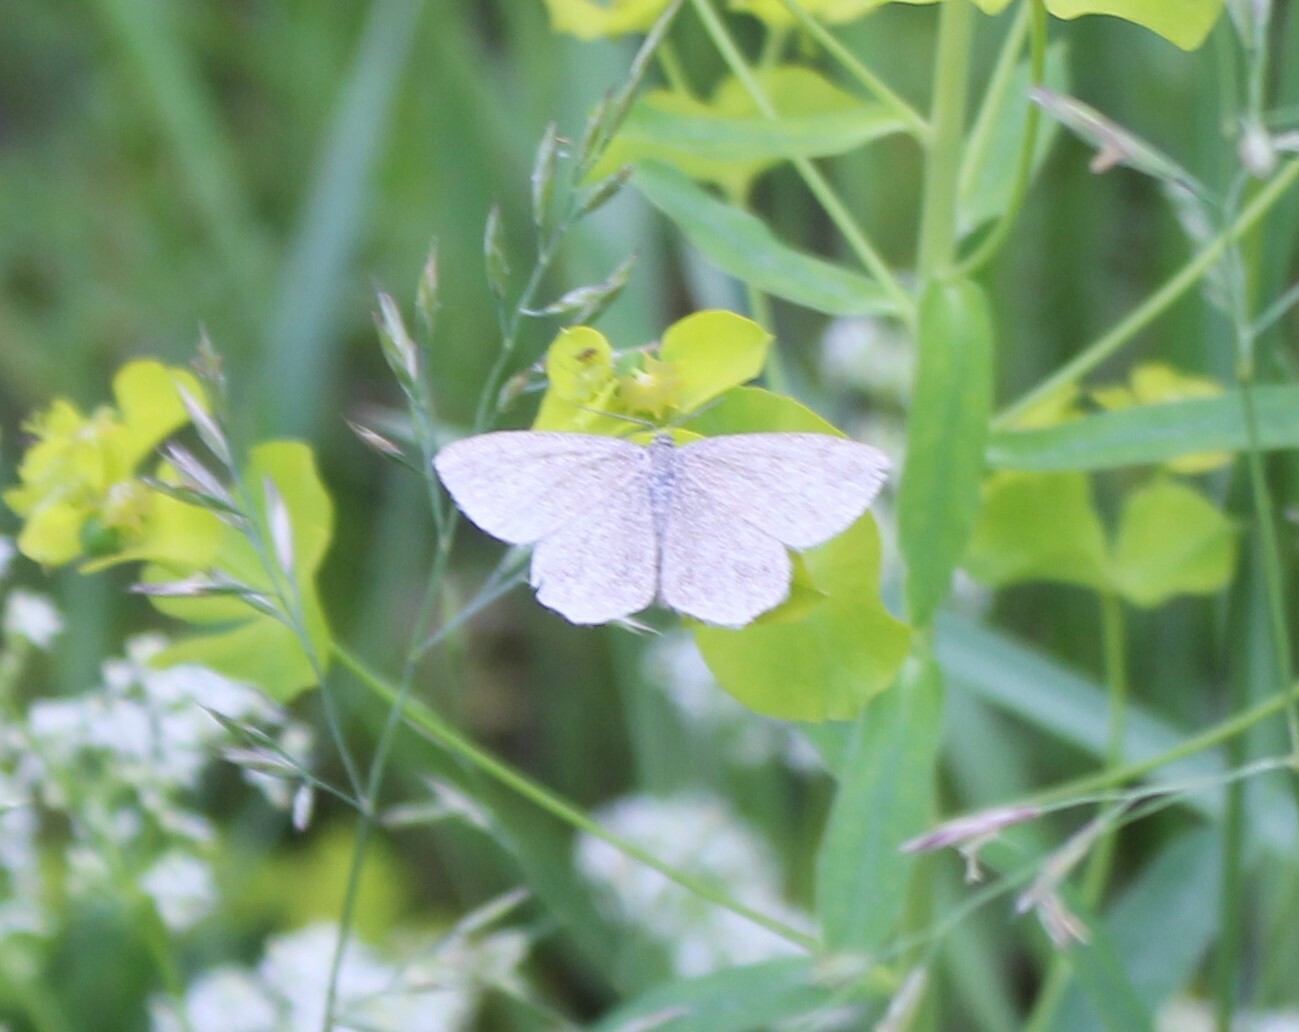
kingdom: Animalia
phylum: Arthropoda
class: Insecta
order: Lepidoptera
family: Geometridae
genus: Scopula
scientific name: Scopula immorata
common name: Lewes wave
